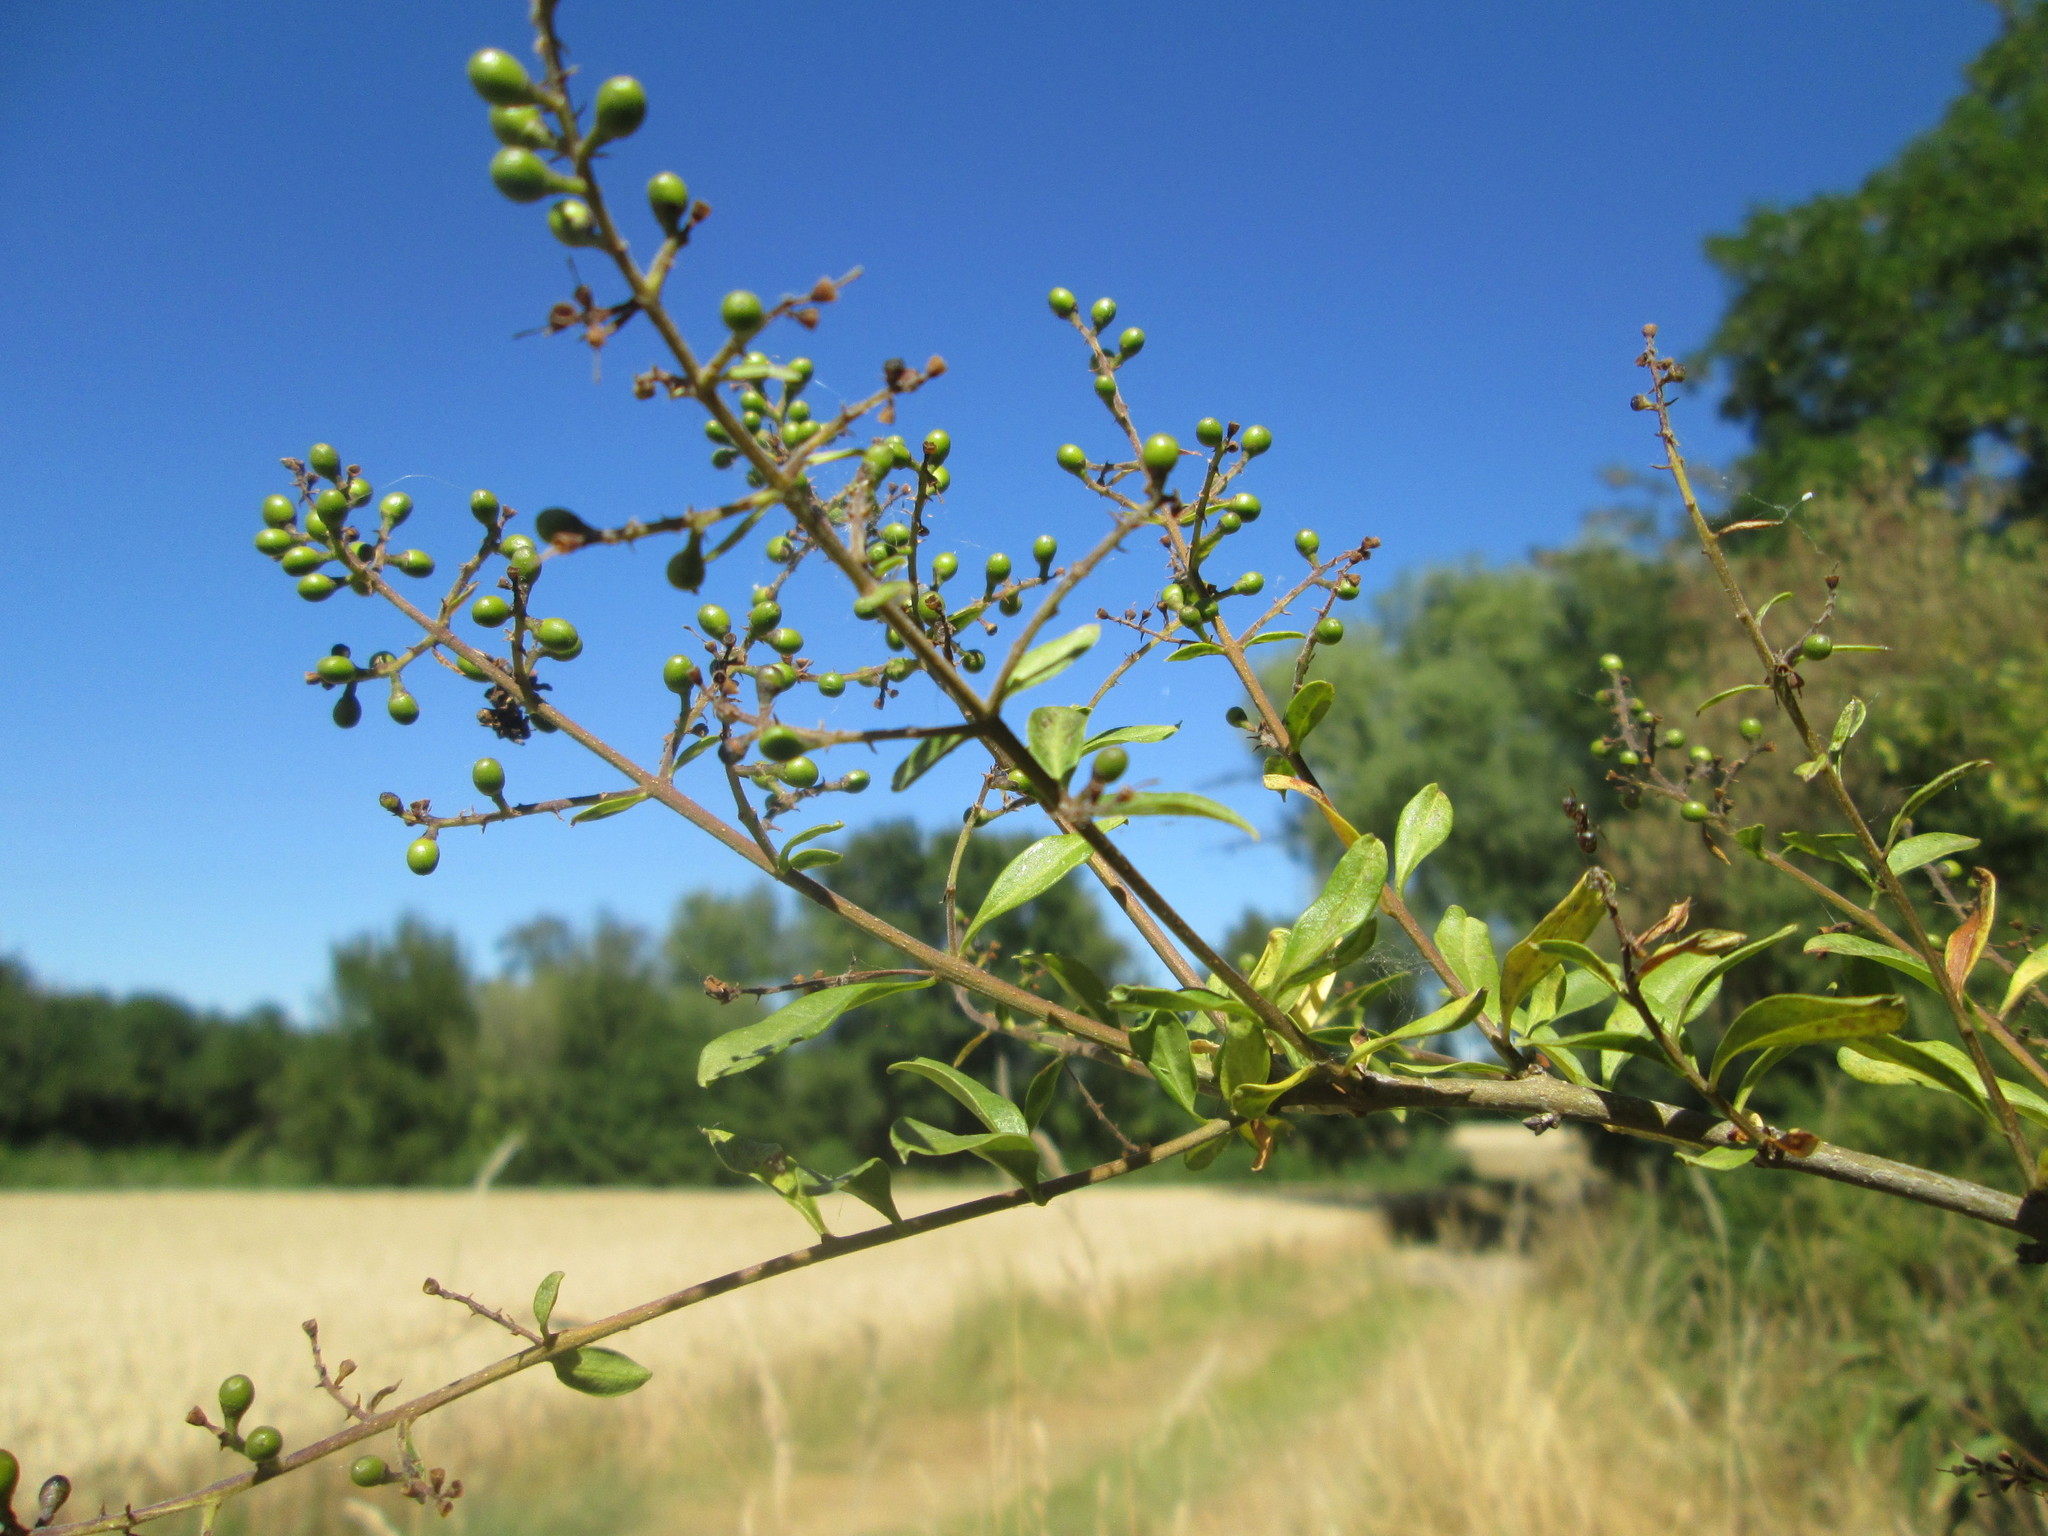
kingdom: Plantae
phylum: Tracheophyta
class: Magnoliopsida
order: Lamiales
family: Oleaceae
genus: Ligustrum
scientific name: Ligustrum vulgare
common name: Wild privet
